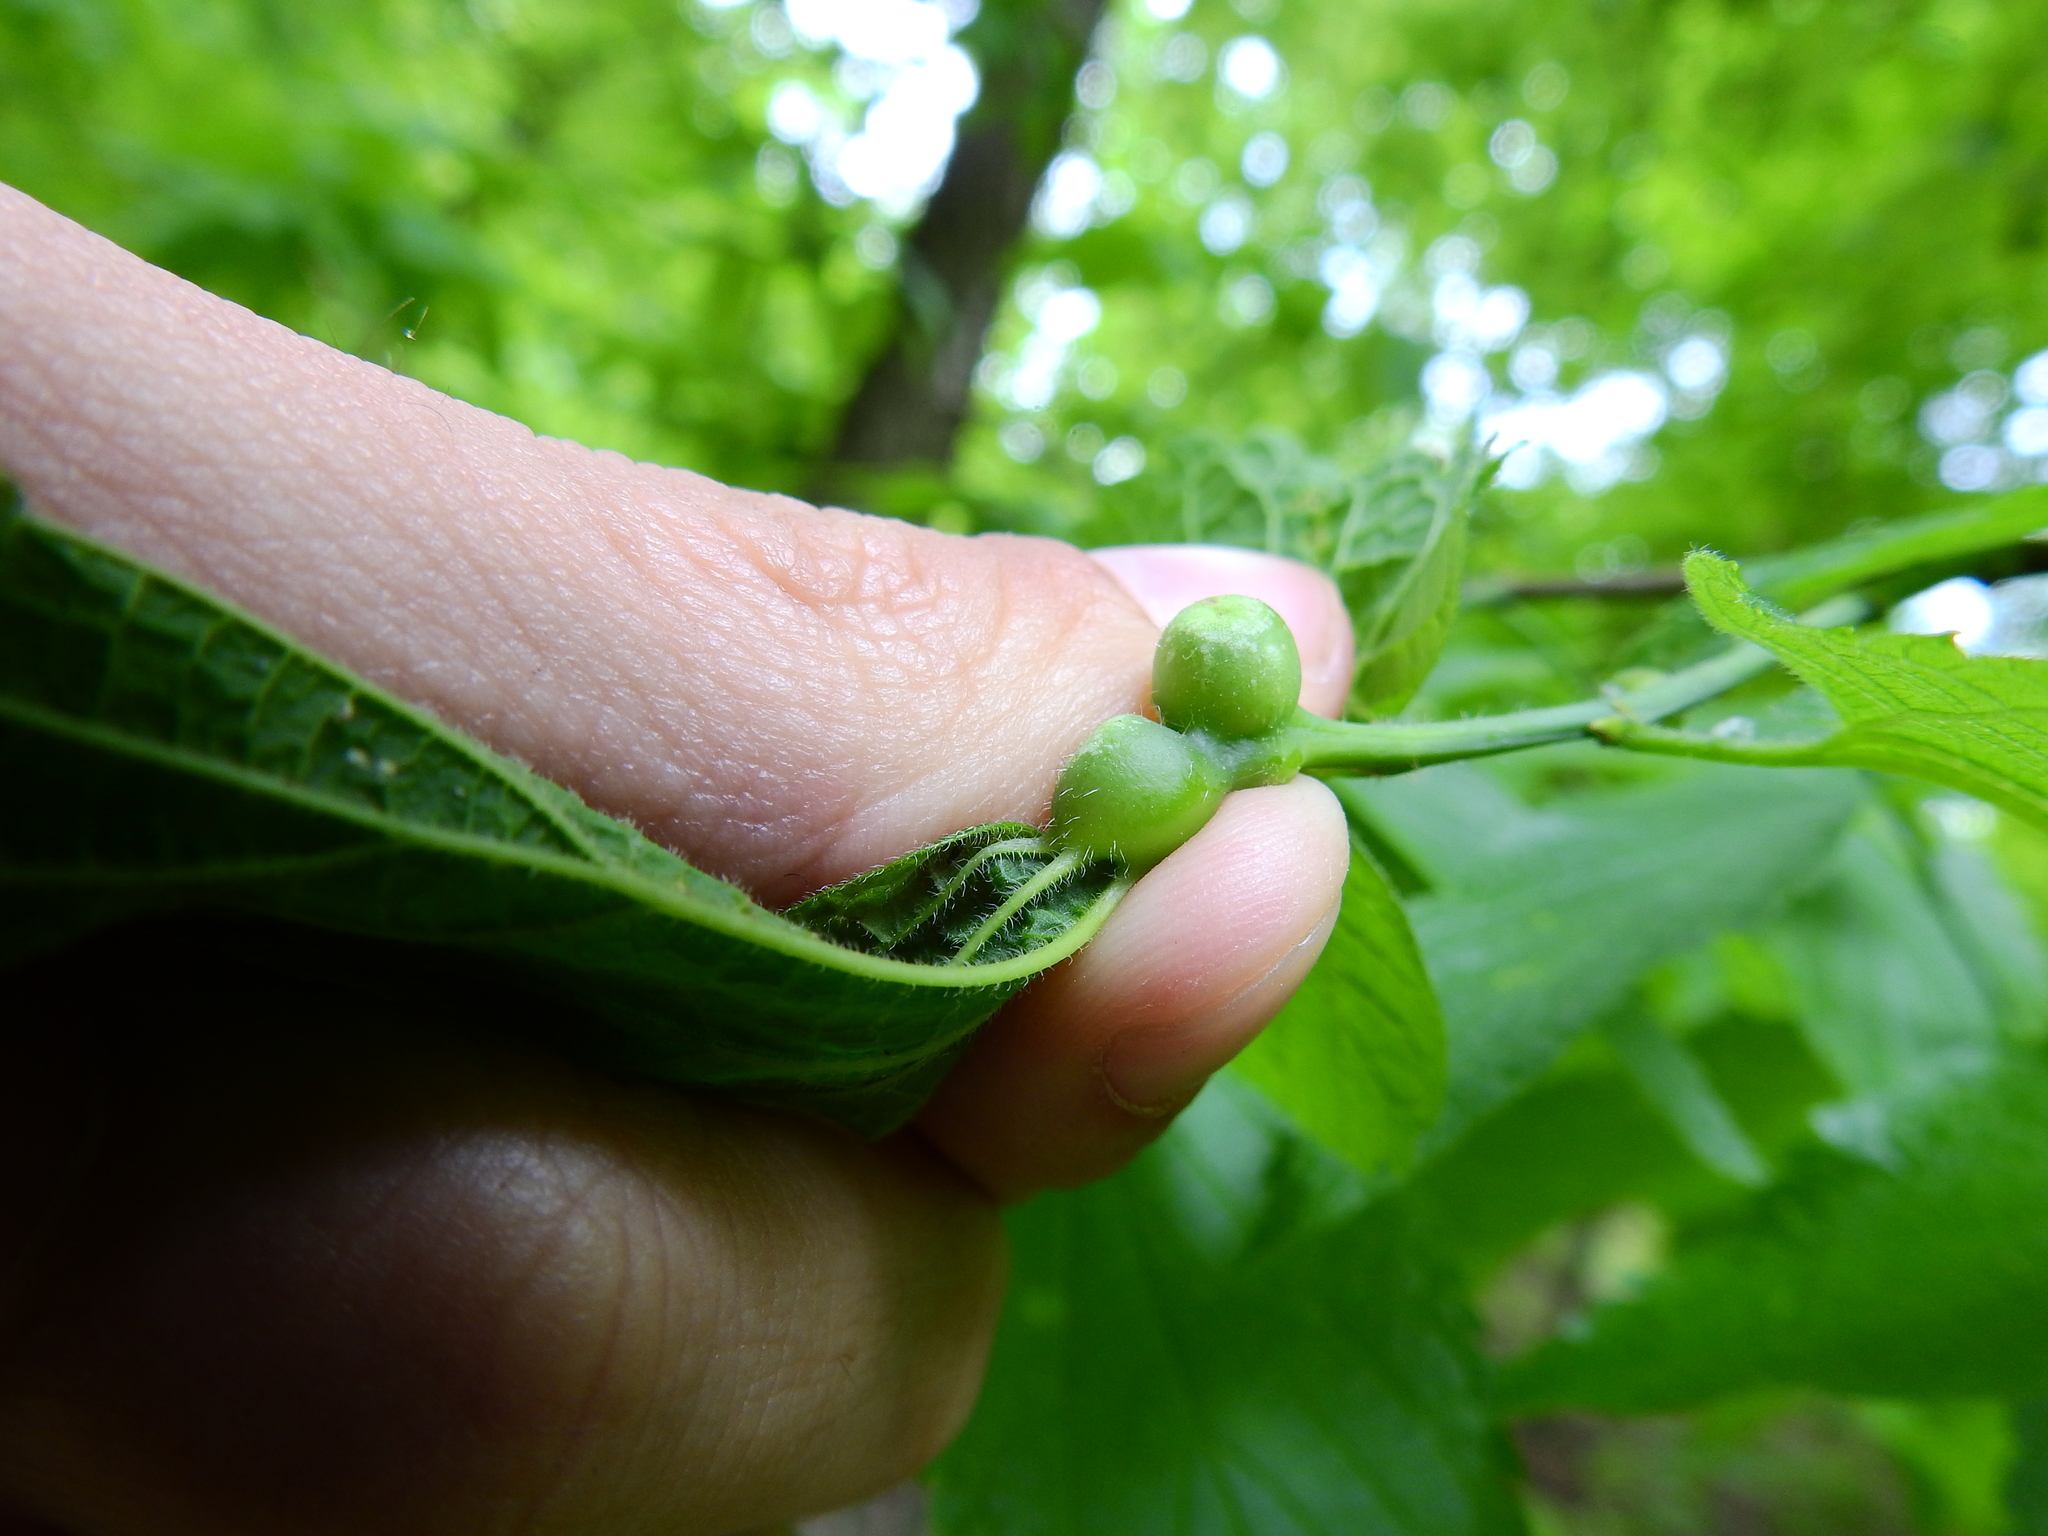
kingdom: Animalia
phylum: Arthropoda
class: Insecta
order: Diptera
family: Cecidomyiidae
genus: Celticecis
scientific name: Celticecis expulsa
